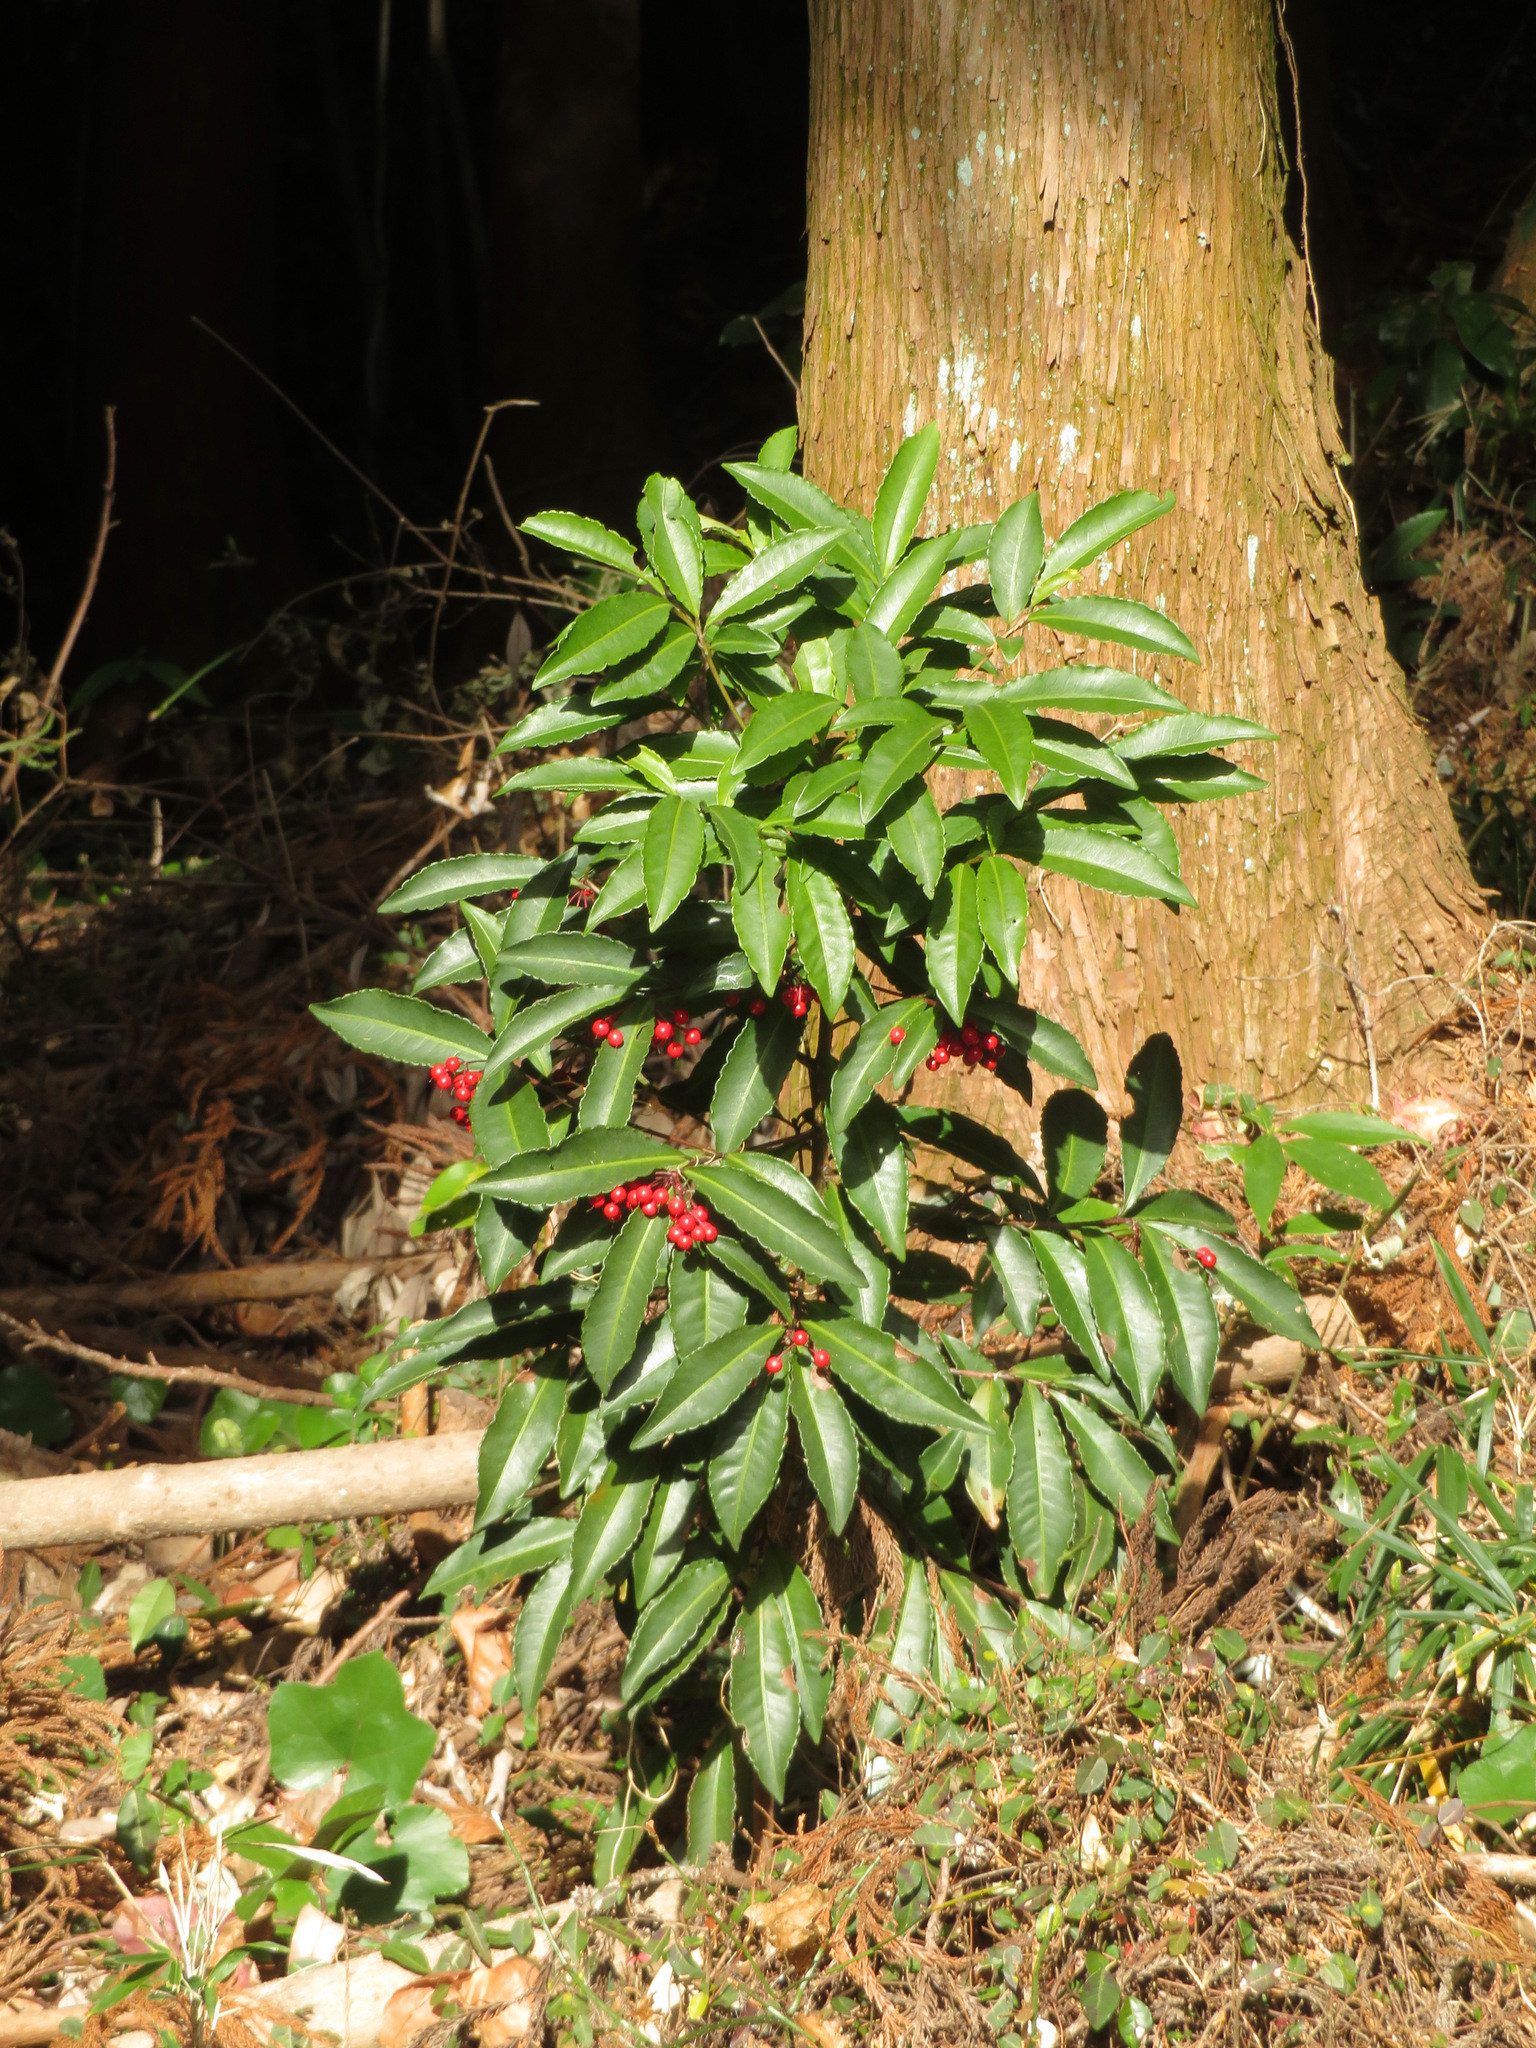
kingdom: Plantae
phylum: Tracheophyta
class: Magnoliopsida
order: Ericales
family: Primulaceae
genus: Ardisia
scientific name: Ardisia crenata
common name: Hen's eyes
